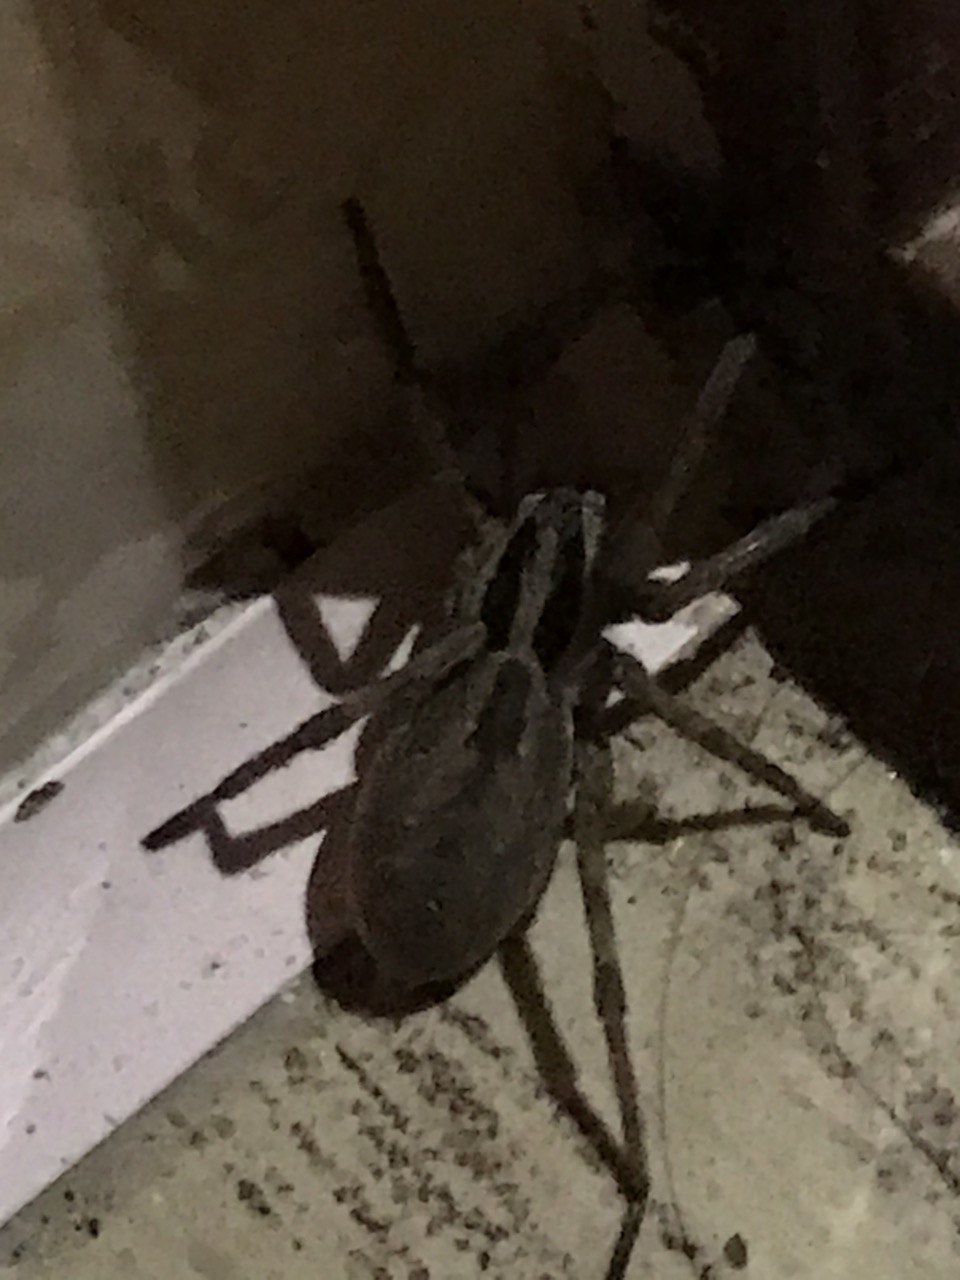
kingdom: Animalia
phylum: Arthropoda
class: Arachnida
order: Araneae
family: Lycosidae
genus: Hogna
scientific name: Hogna radiata
